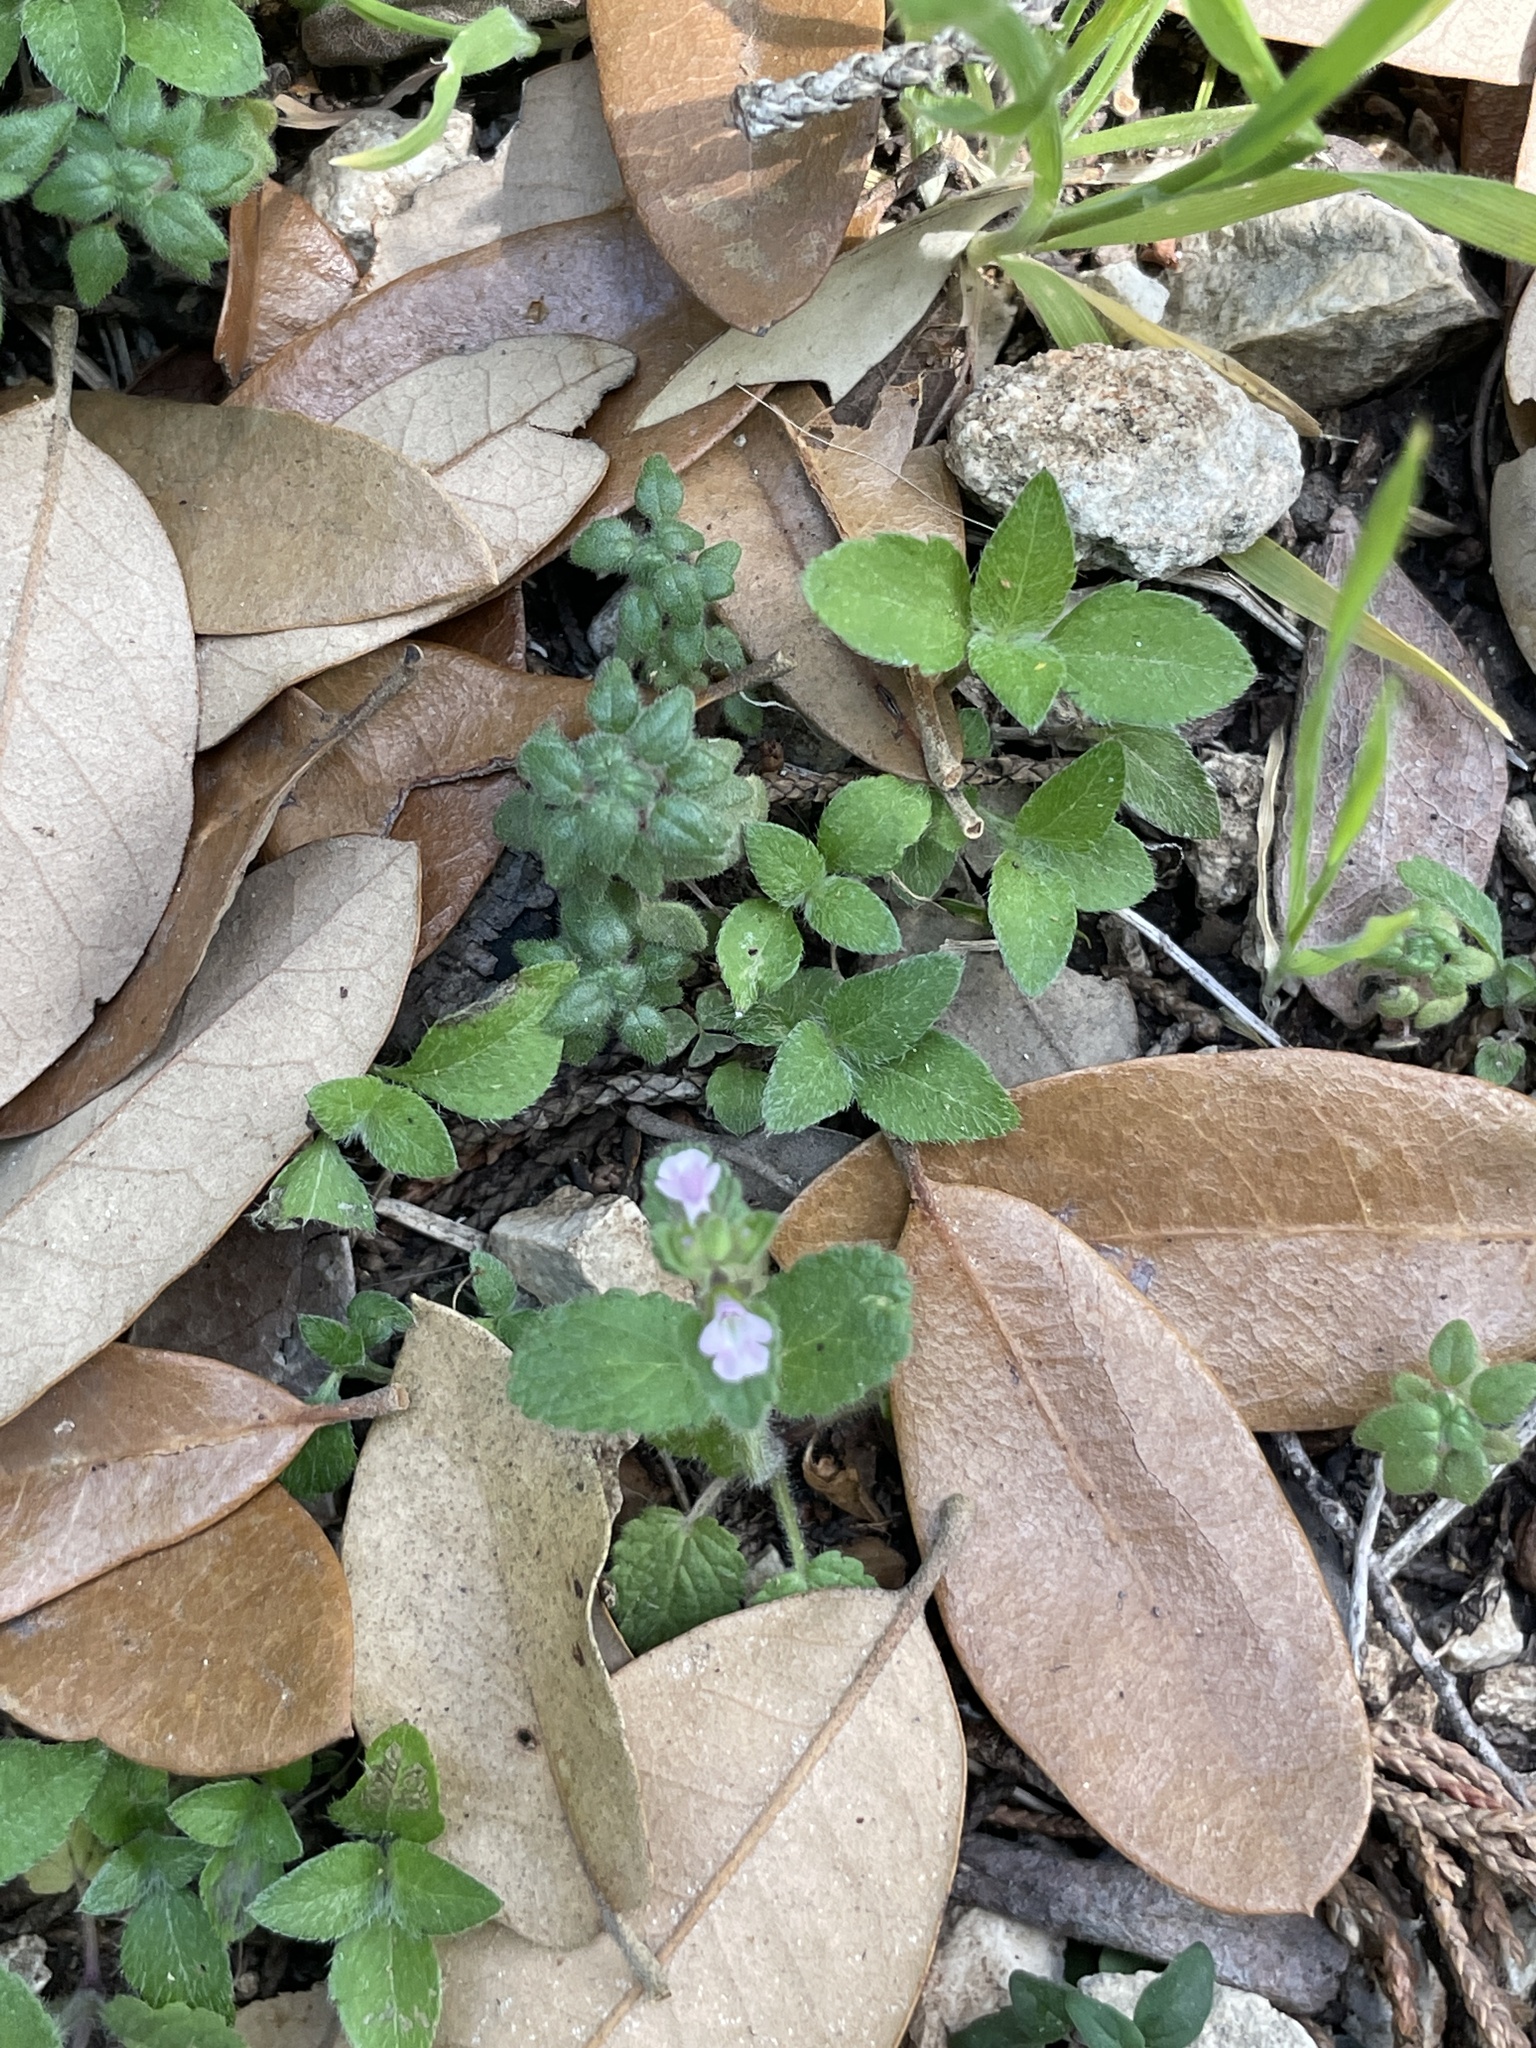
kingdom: Plantae
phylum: Tracheophyta
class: Magnoliopsida
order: Lamiales
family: Lamiaceae
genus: Stachys
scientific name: Stachys
